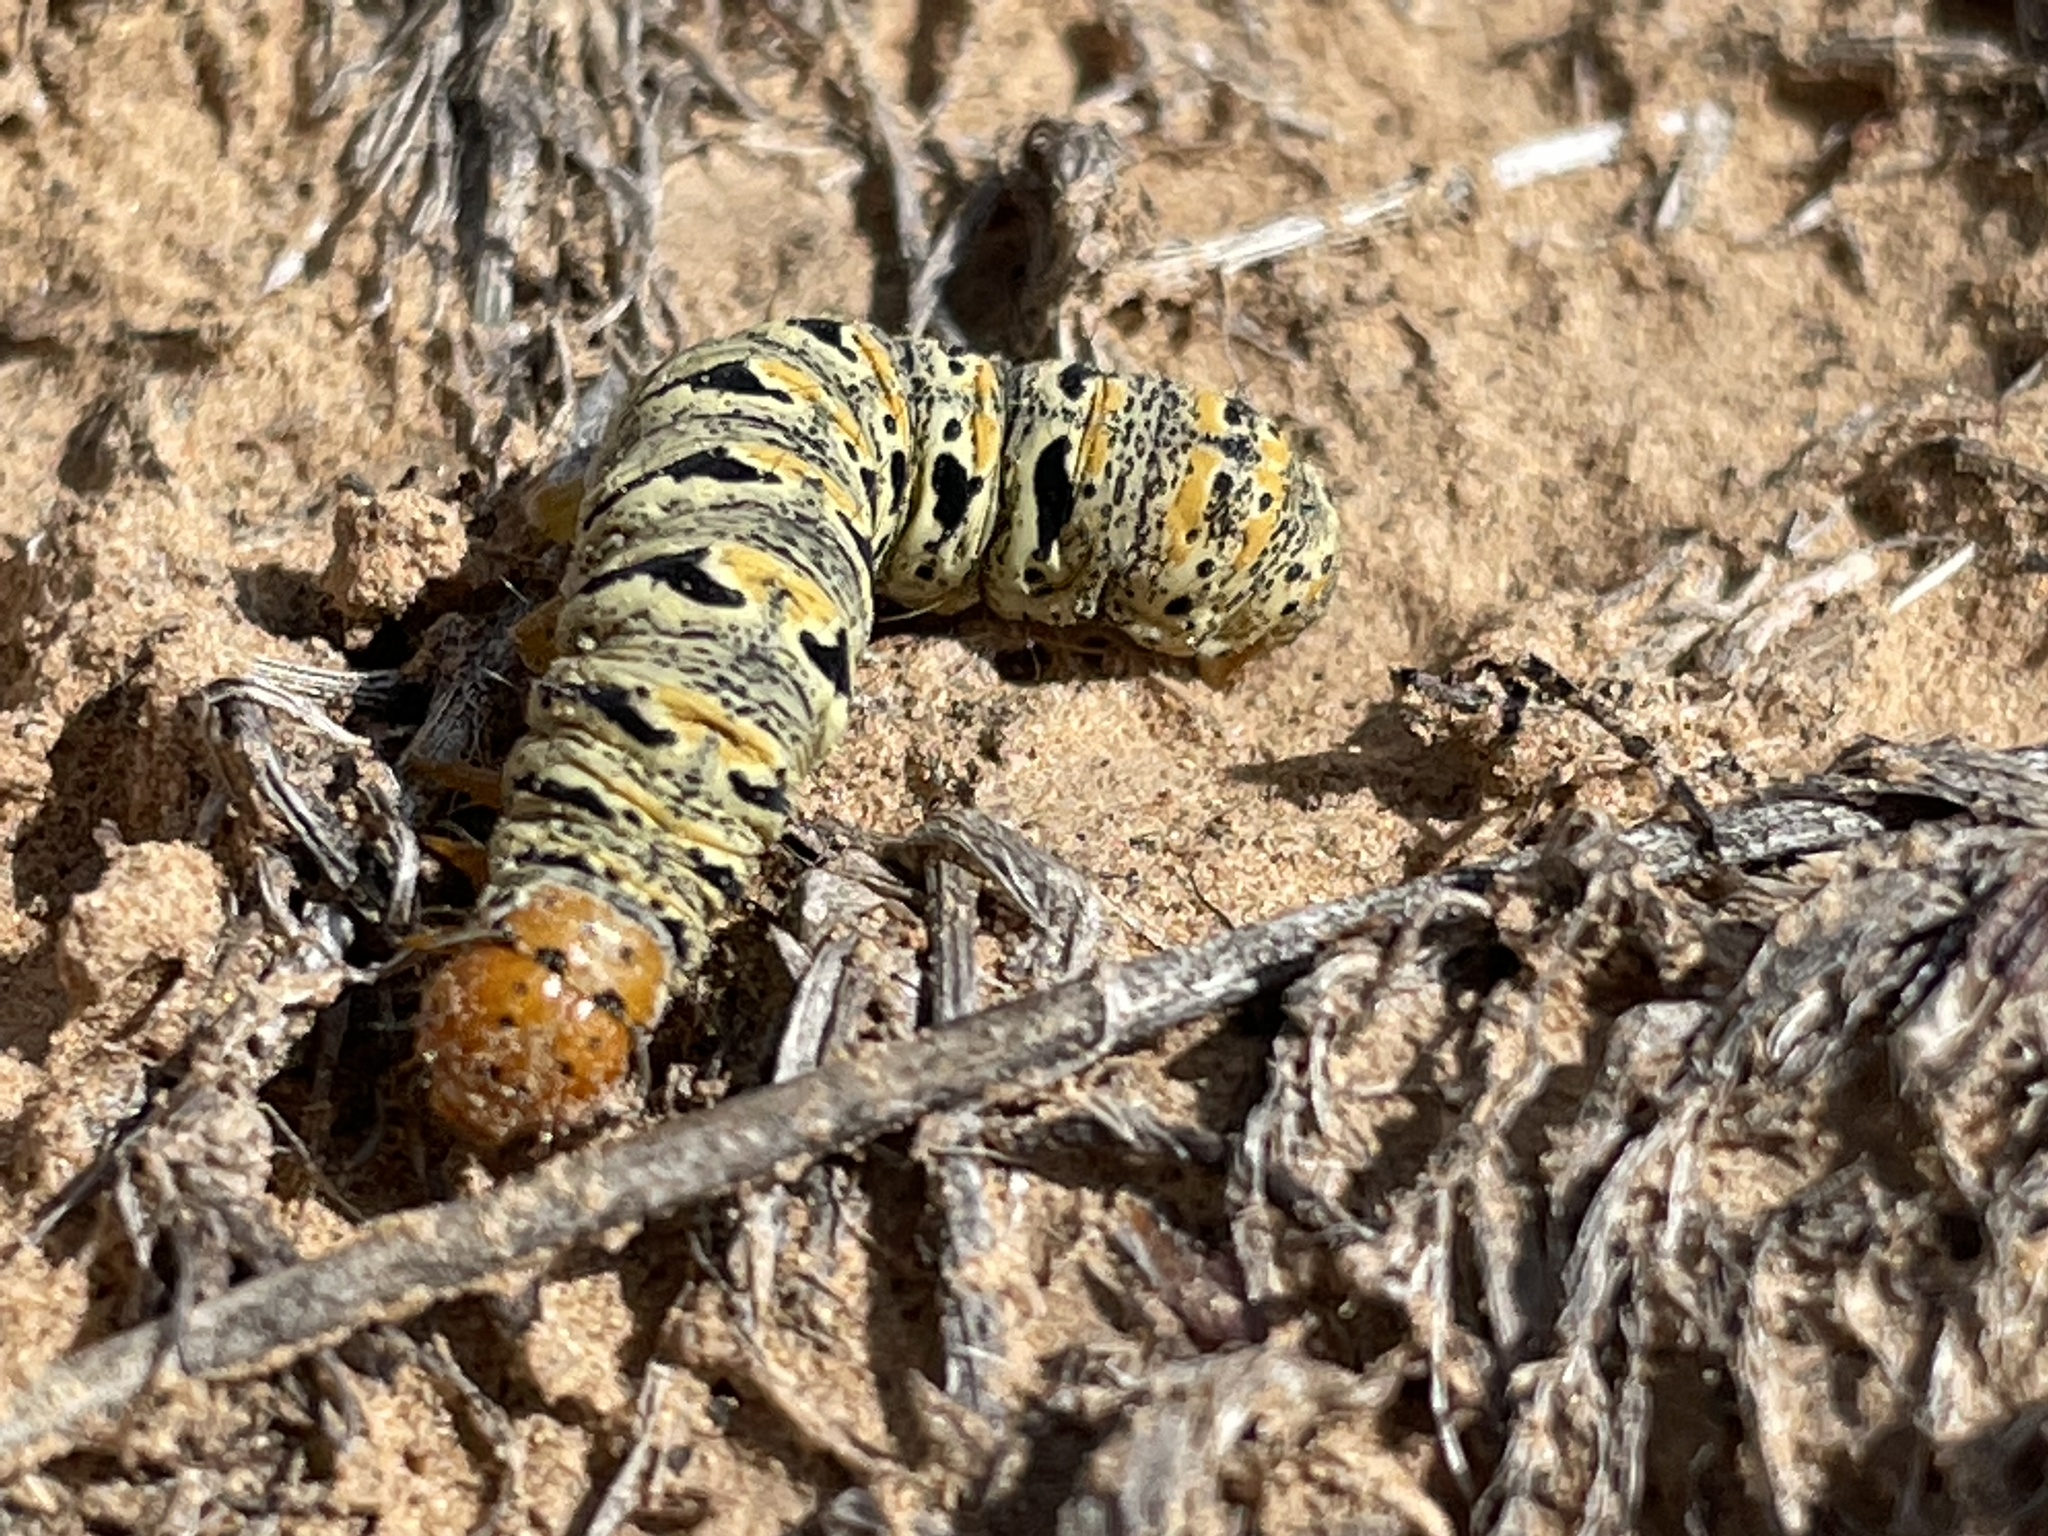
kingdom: Animalia
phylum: Arthropoda
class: Insecta
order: Lepidoptera
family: Noctuidae
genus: Euscirrhopterus
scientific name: Euscirrhopterus gloveri
